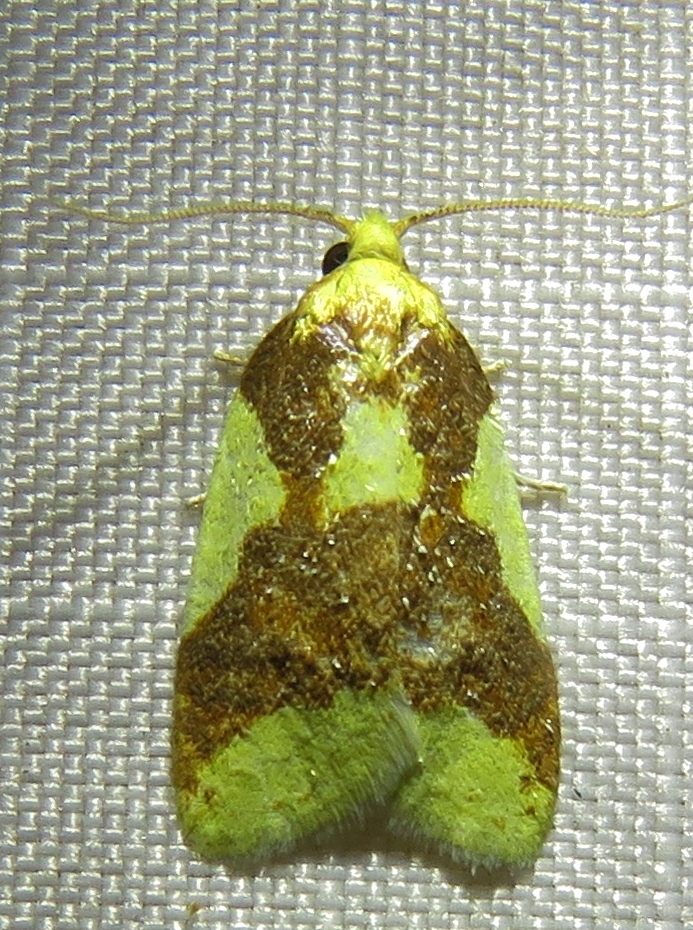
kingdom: Animalia
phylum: Arthropoda
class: Insecta
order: Lepidoptera
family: Tortricidae
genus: Sparganothis
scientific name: Sparganothis pulcherrimana
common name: Beautiful sparganothis
